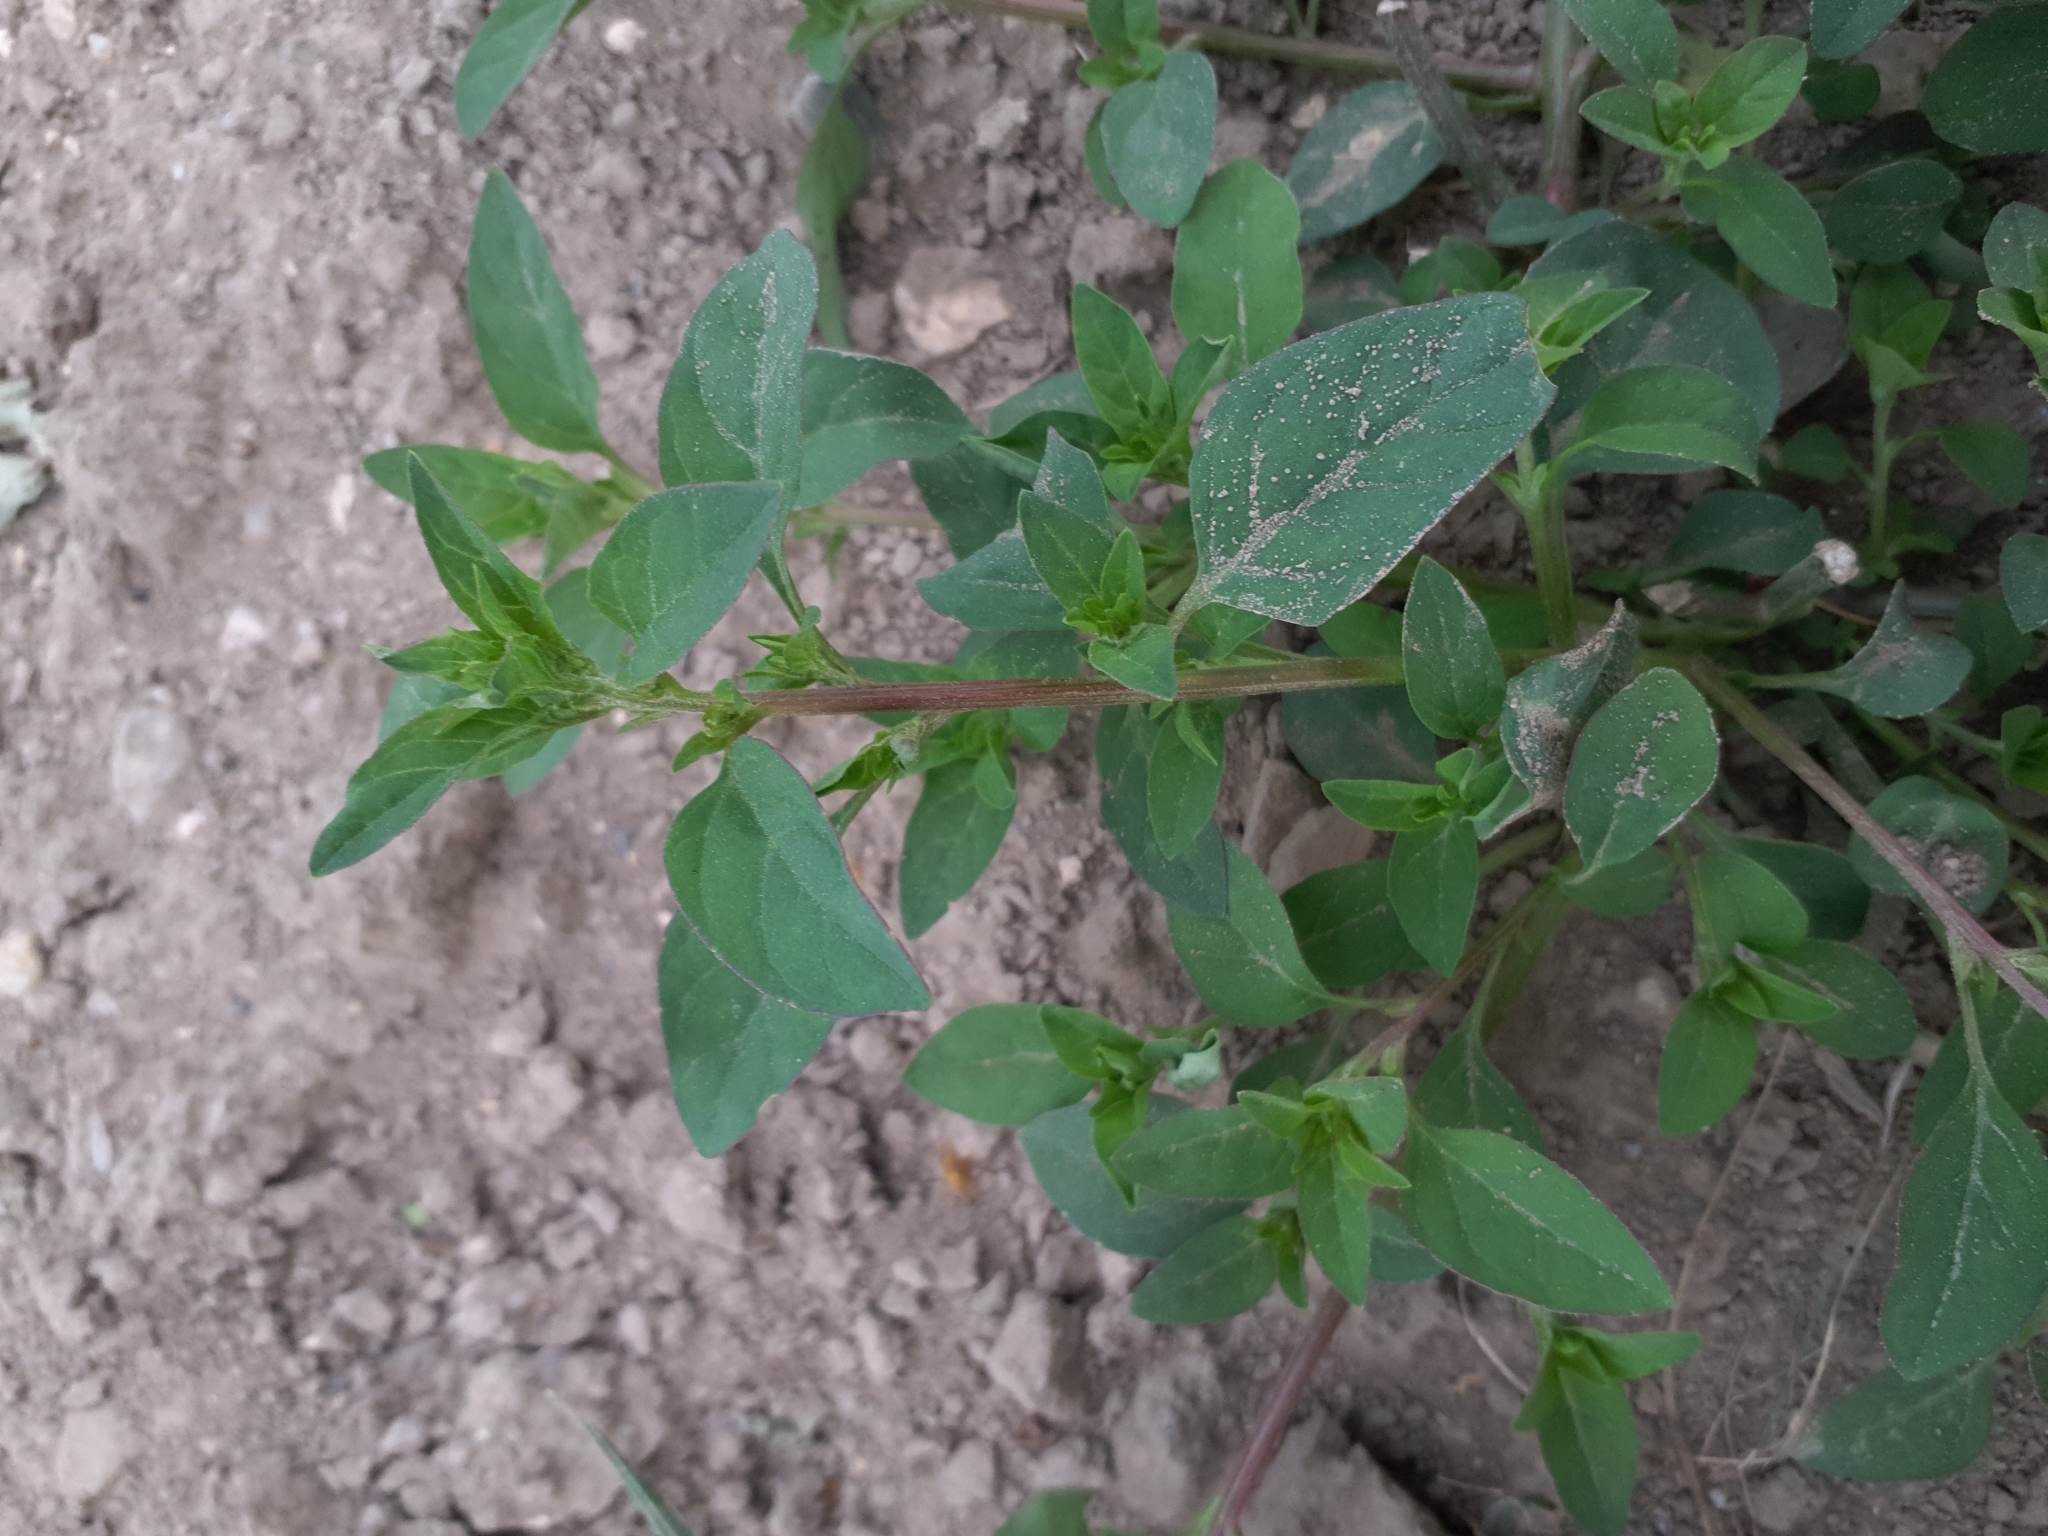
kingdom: Plantae
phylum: Tracheophyta
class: Magnoliopsida
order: Caryophyllales
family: Amaranthaceae
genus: Lipandra
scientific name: Lipandra polysperma
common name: Many-seed goosefoot
